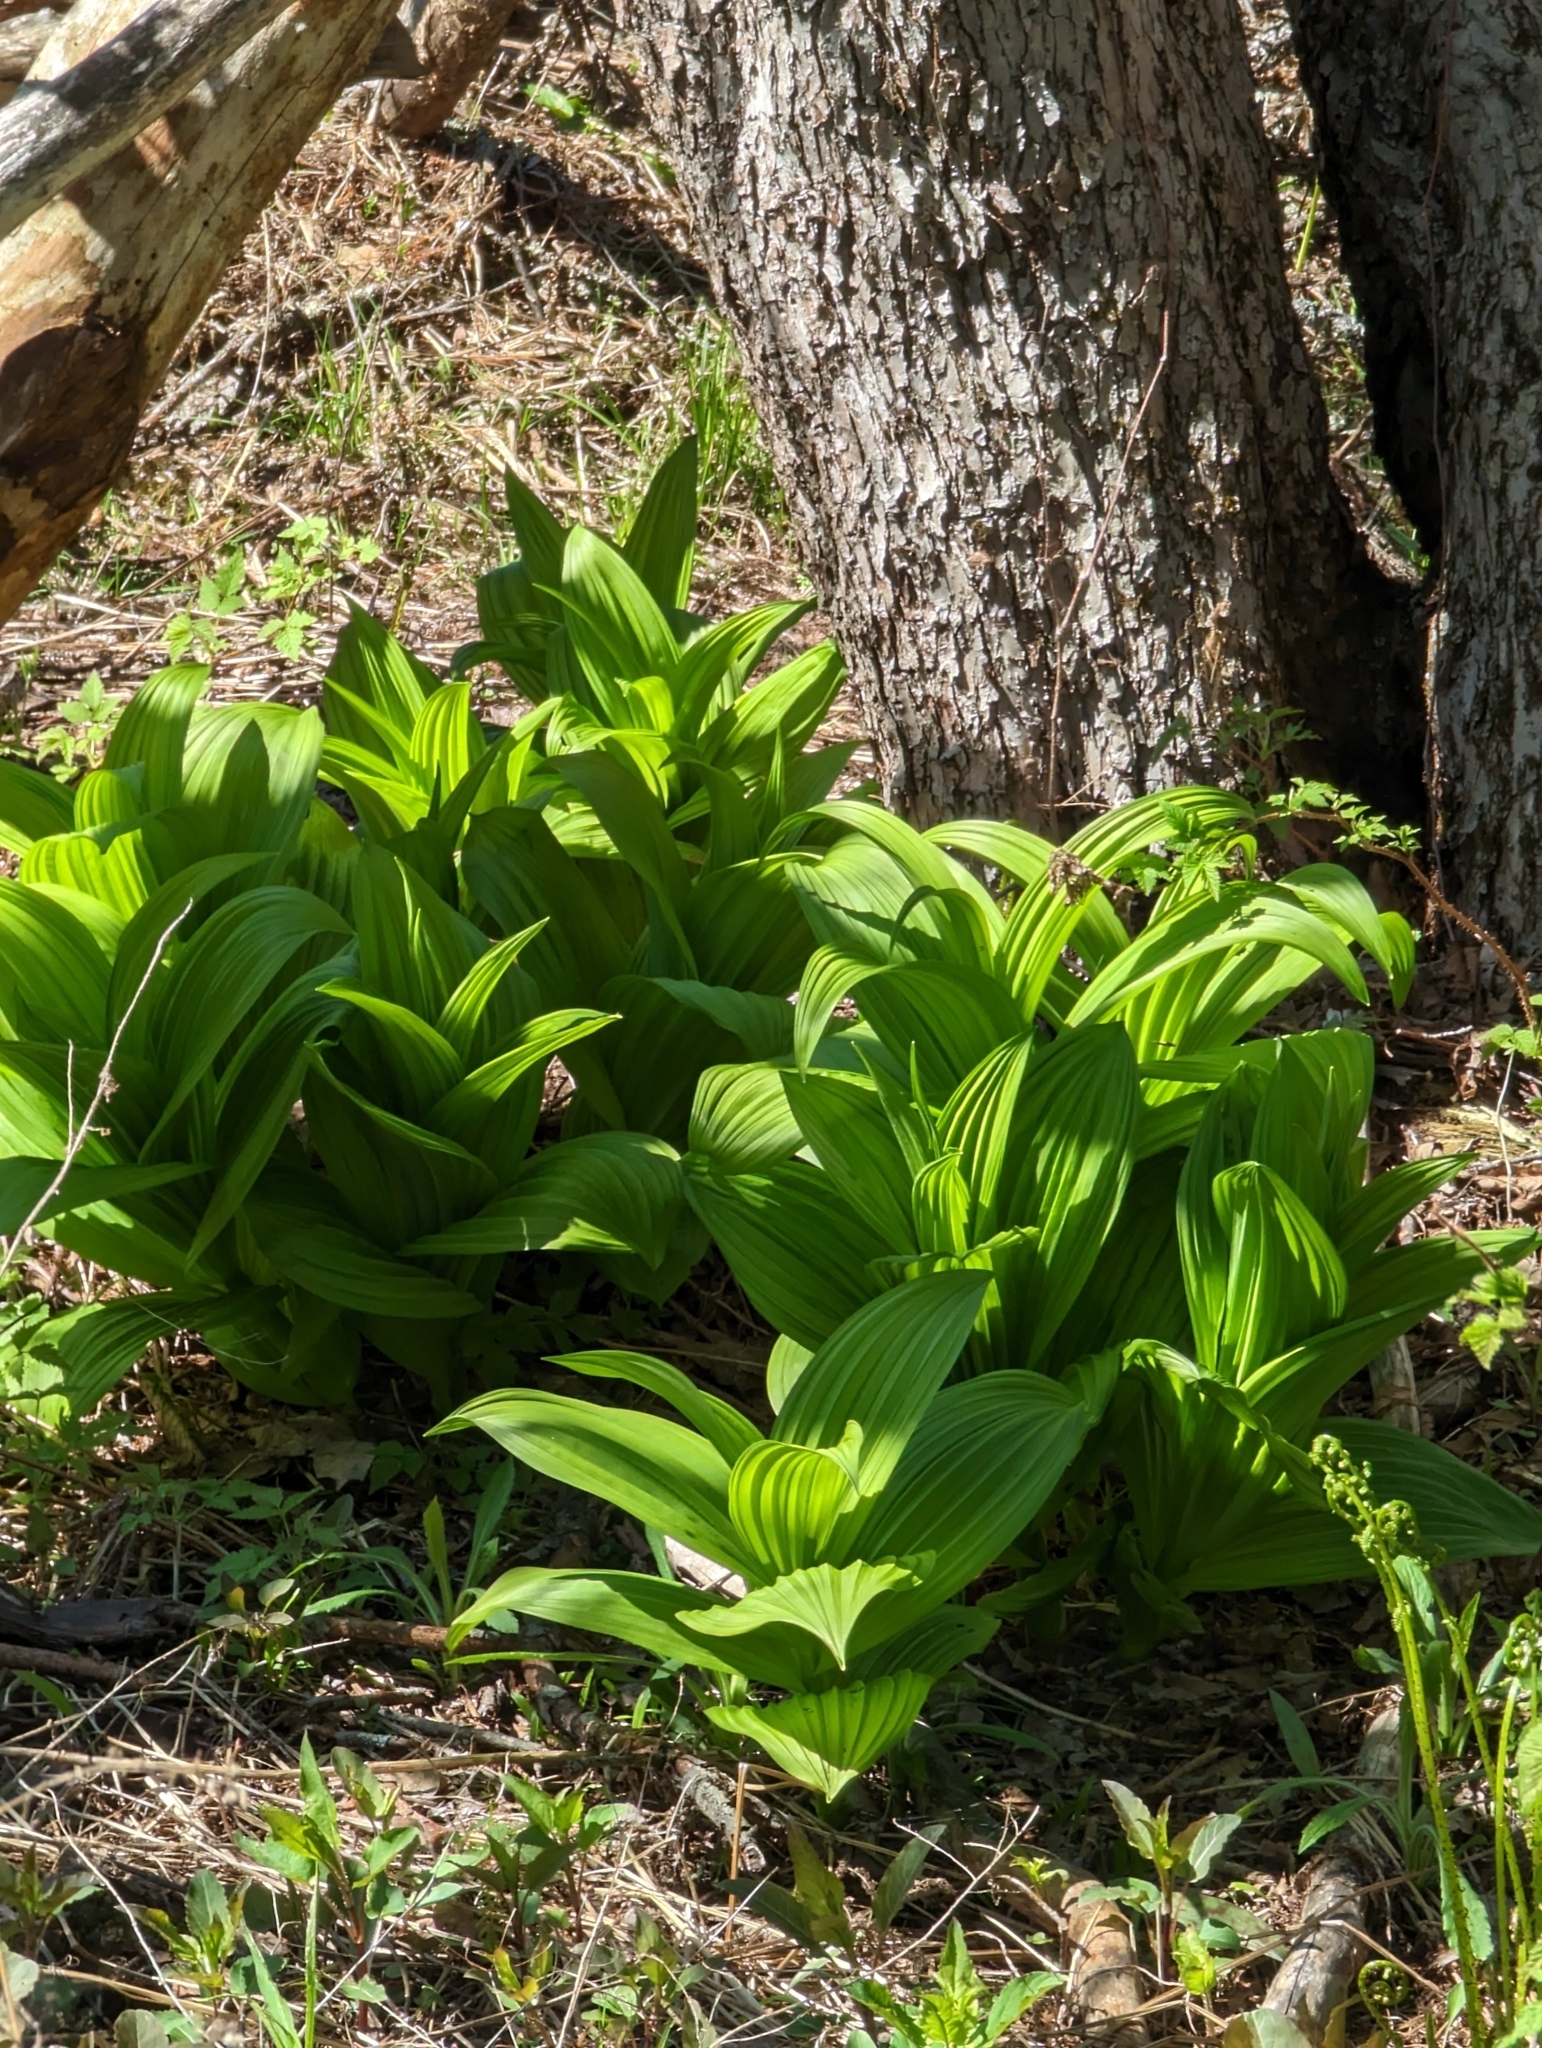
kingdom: Plantae
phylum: Tracheophyta
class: Liliopsida
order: Liliales
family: Melanthiaceae
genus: Veratrum
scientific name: Veratrum viride
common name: American false hellebore
